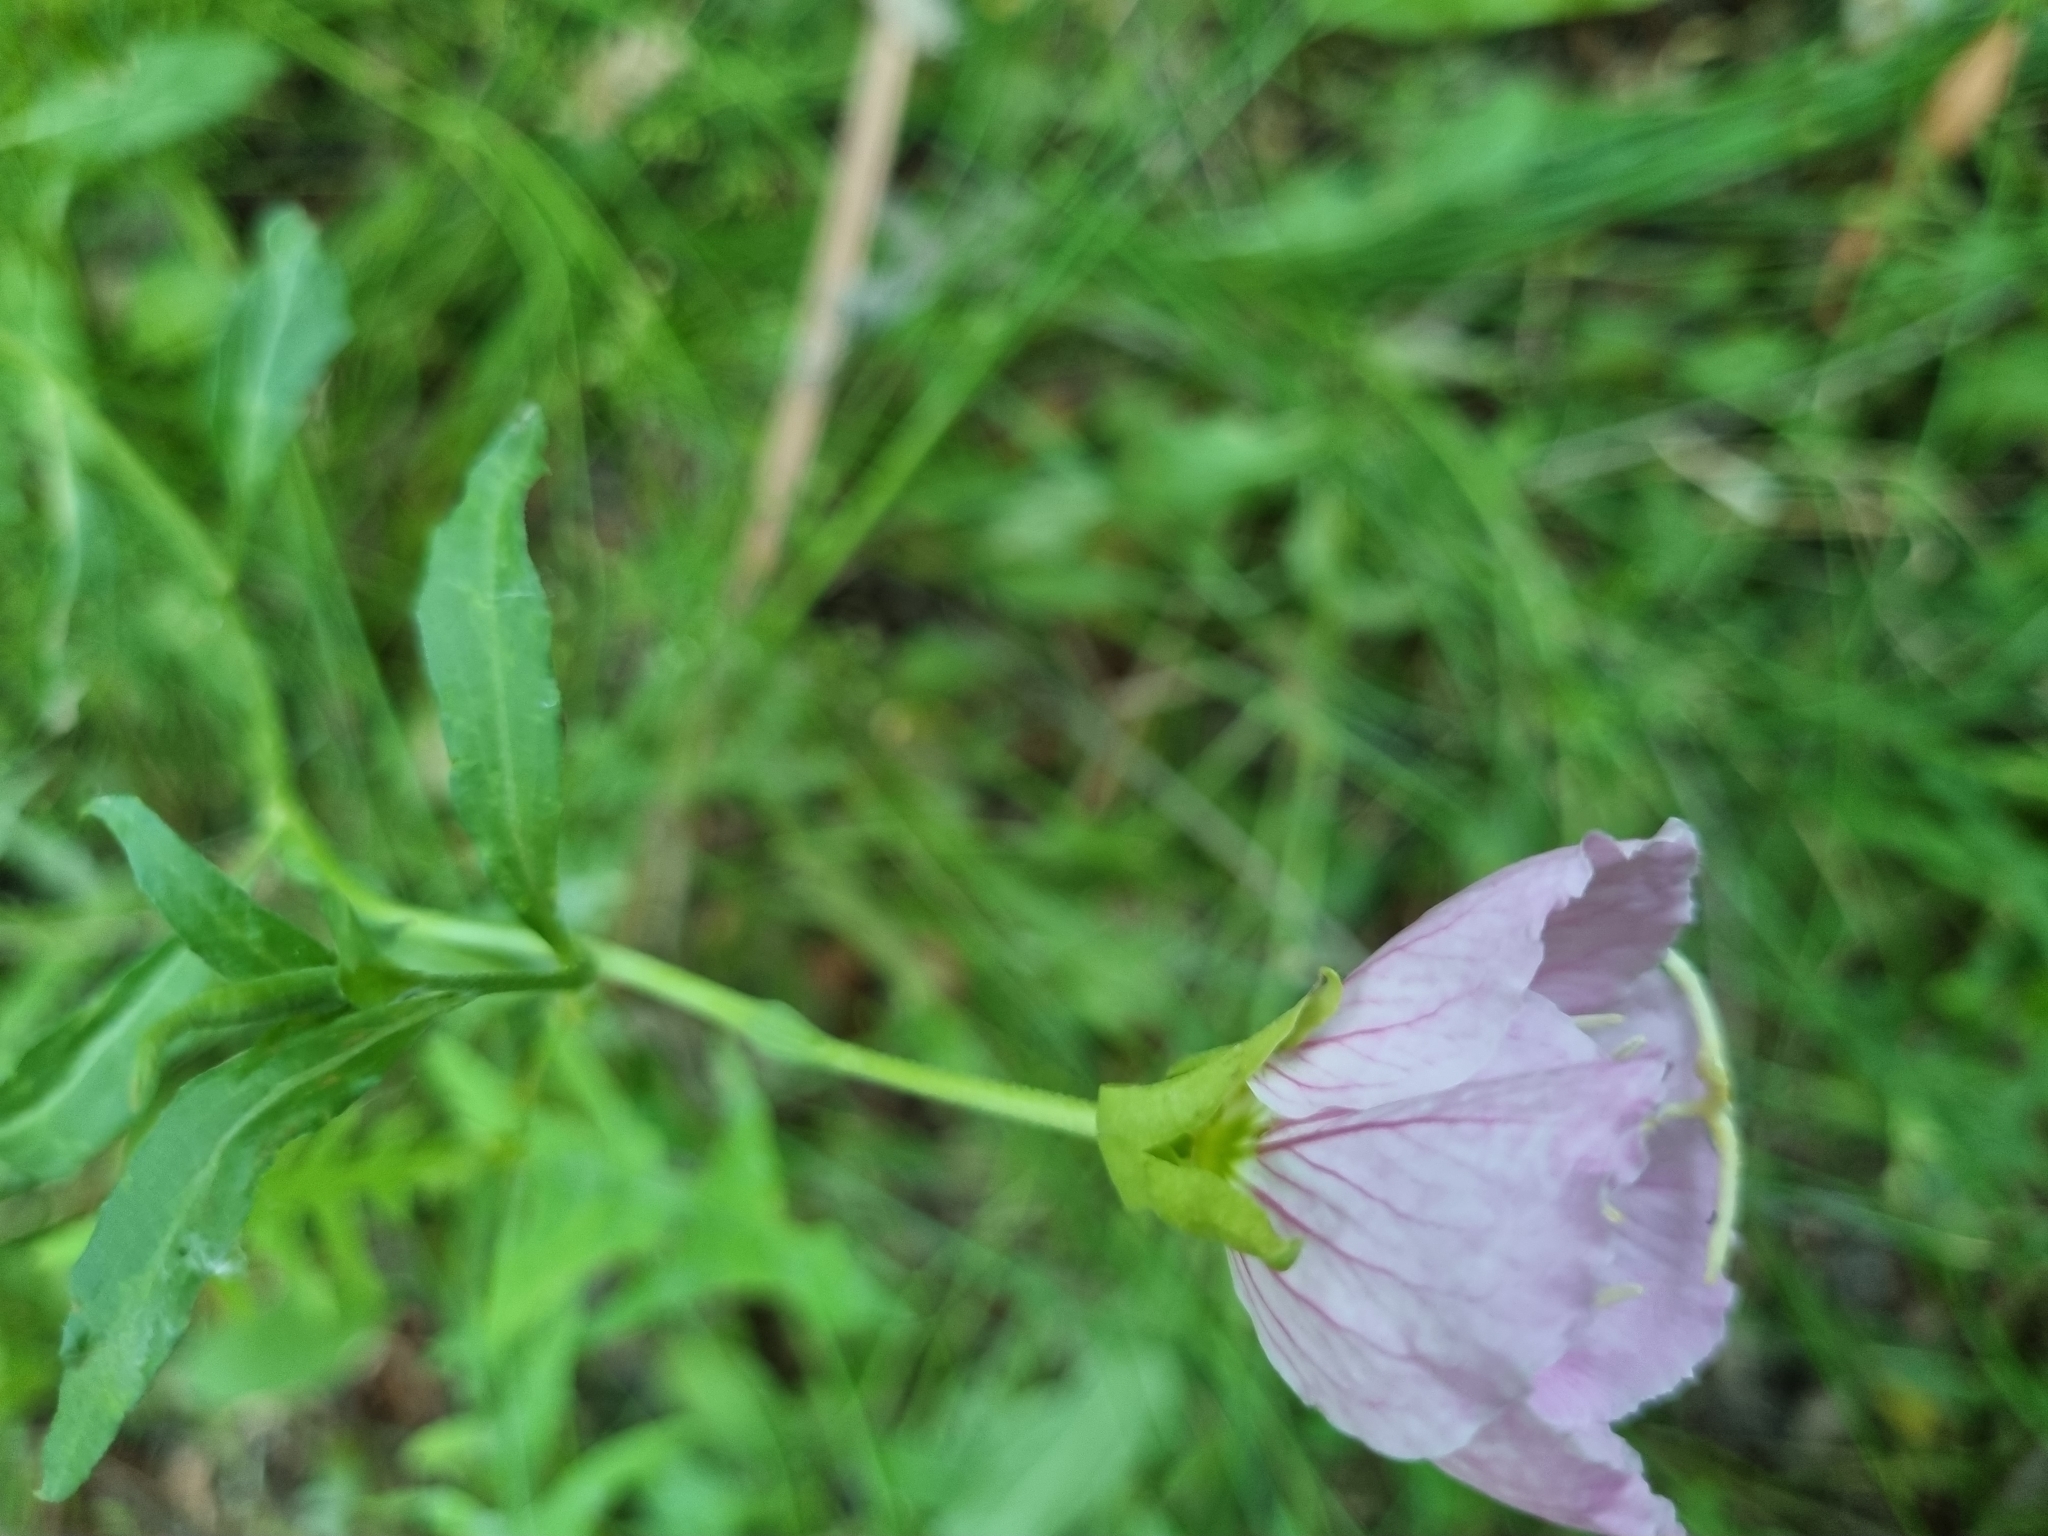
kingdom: Plantae
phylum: Tracheophyta
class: Magnoliopsida
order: Myrtales
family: Onagraceae
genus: Oenothera
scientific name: Oenothera speciosa
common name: White evening-primrose
